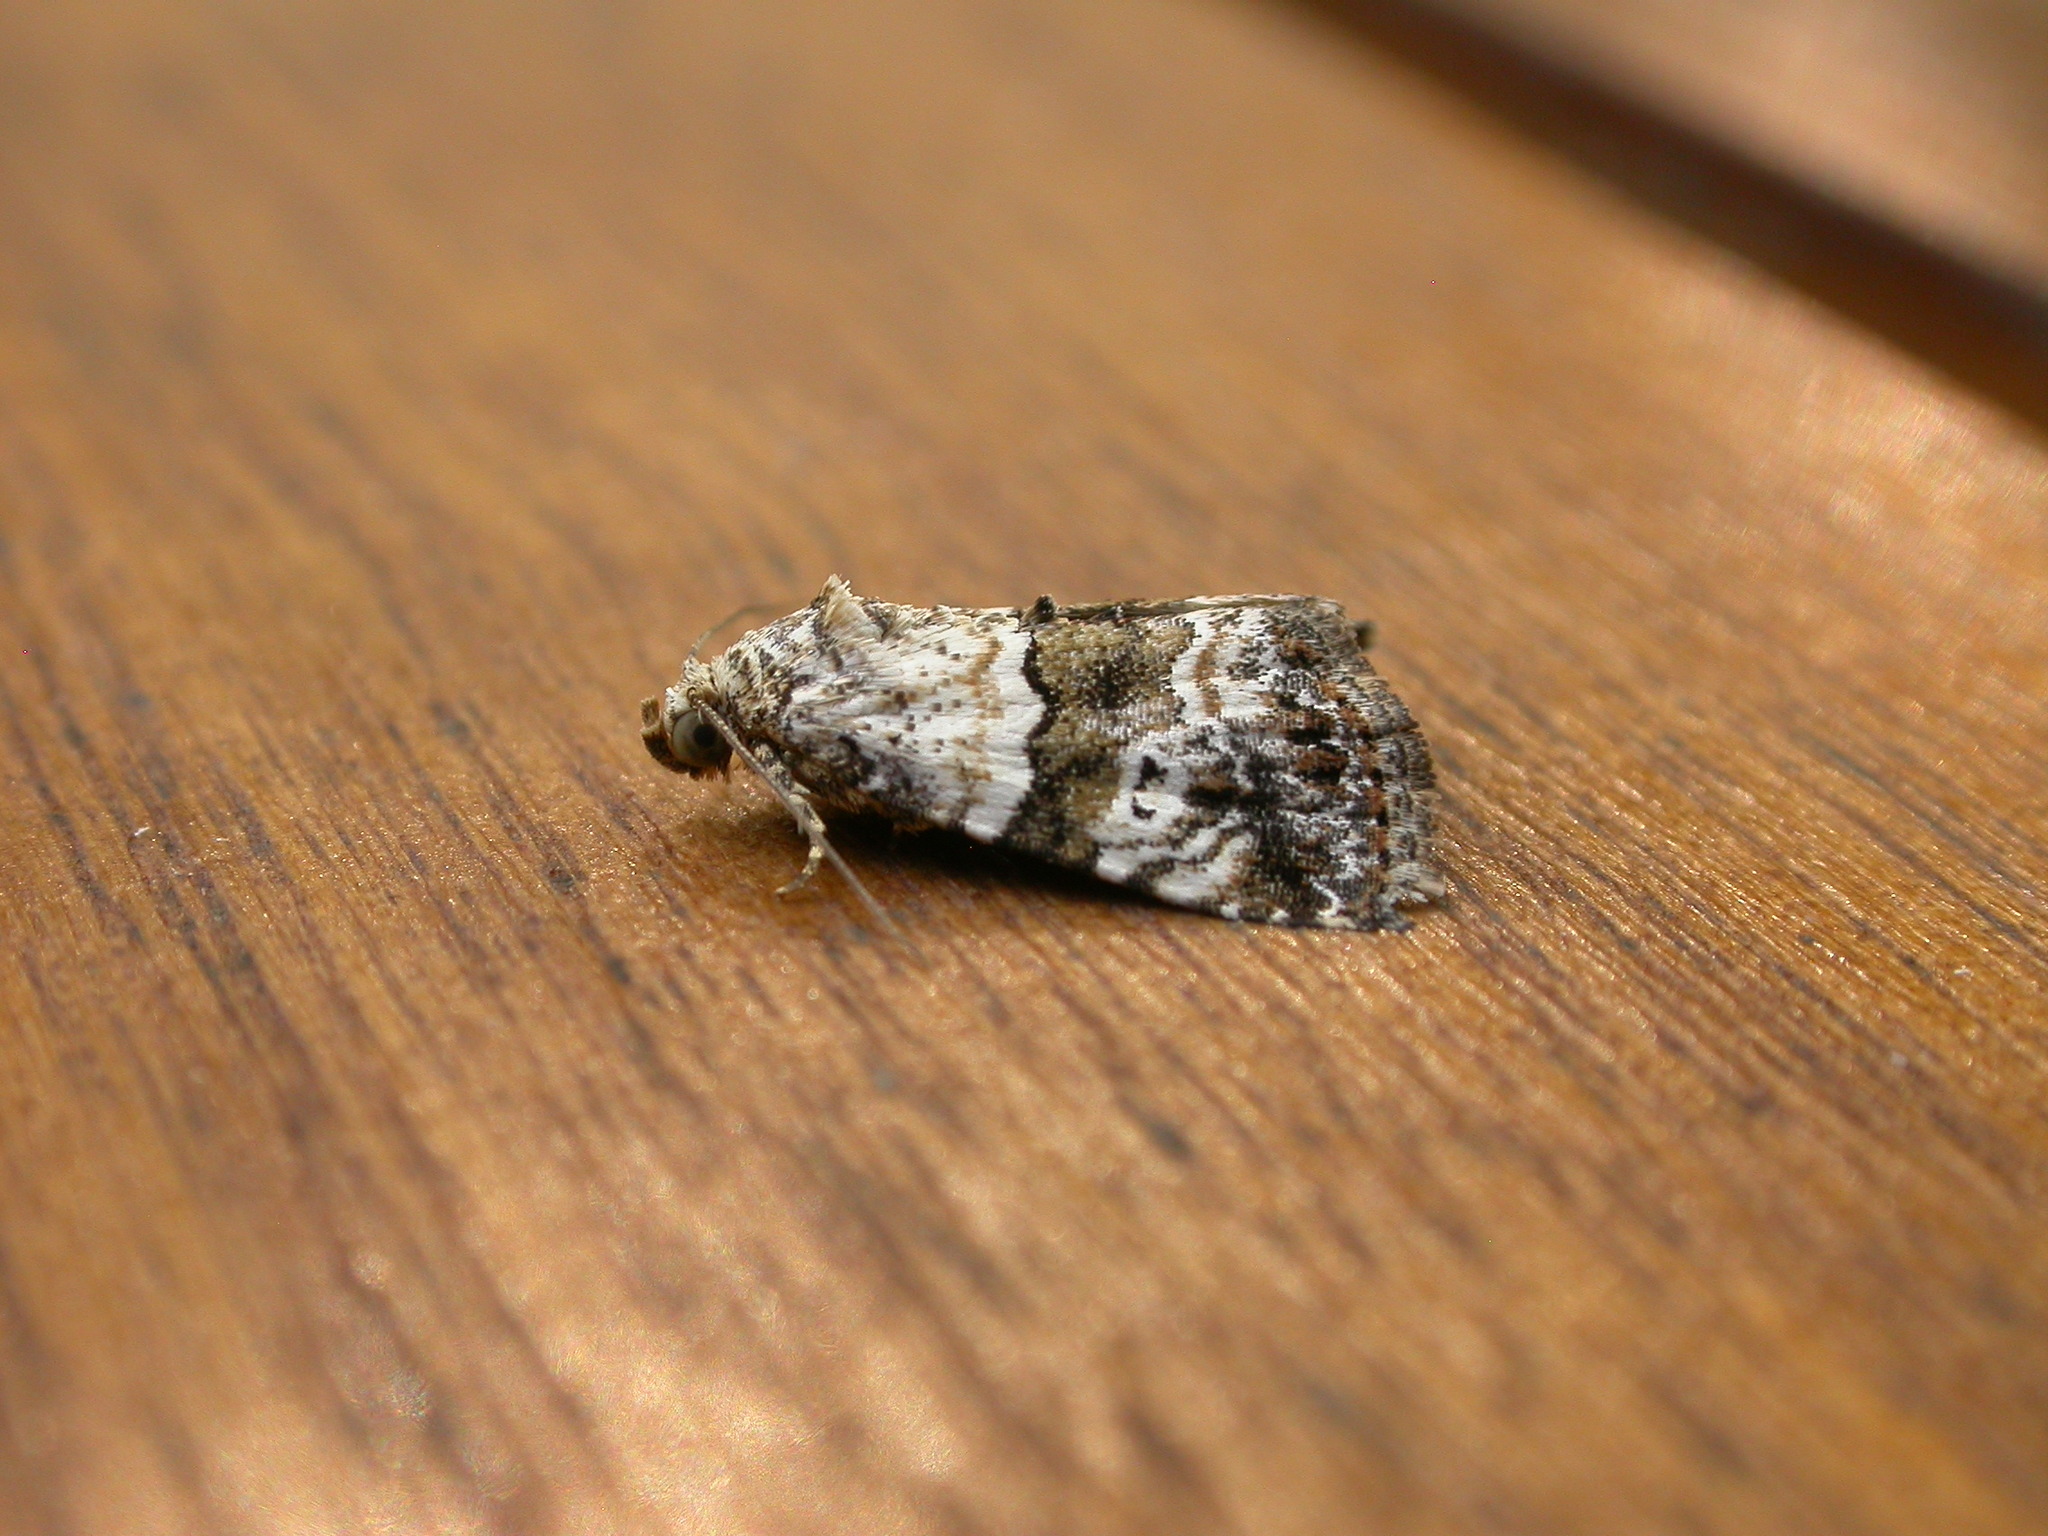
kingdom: Animalia
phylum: Arthropoda
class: Insecta
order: Lepidoptera
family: Noctuidae
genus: Maliattha
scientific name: Maliattha signifera
